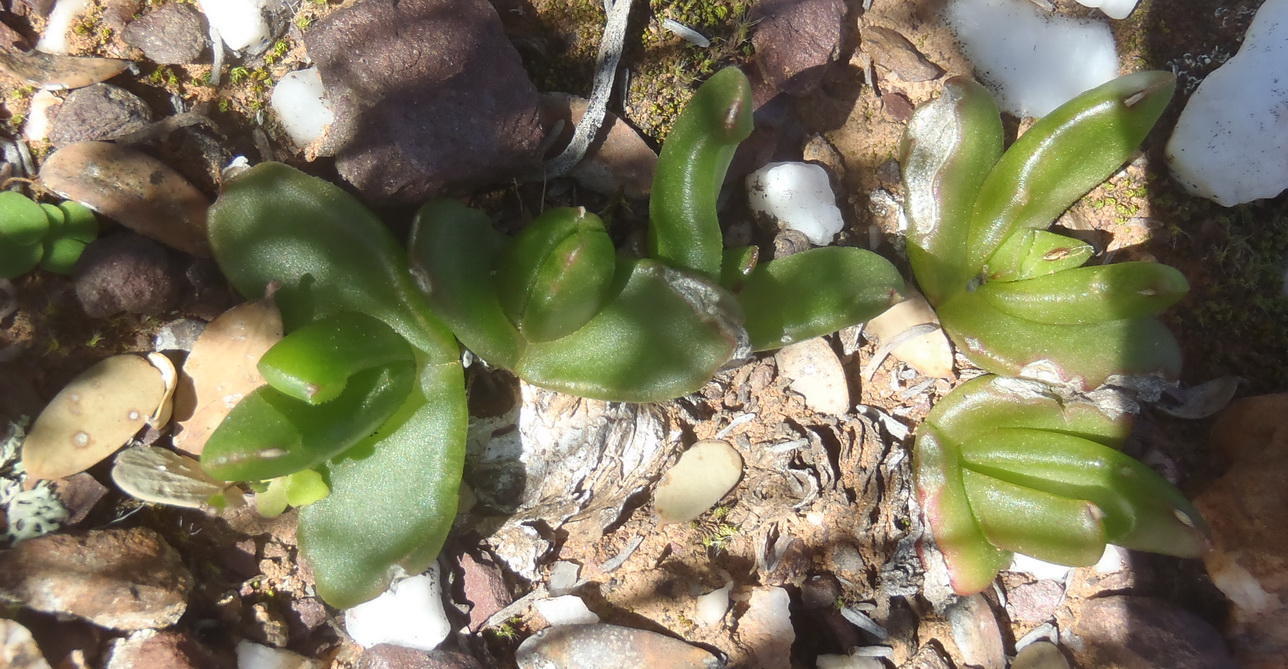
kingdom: Plantae
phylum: Tracheophyta
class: Magnoliopsida
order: Caryophyllales
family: Aizoaceae
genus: Glottiphyllum
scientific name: Glottiphyllum depressum
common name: Fig-marigold
